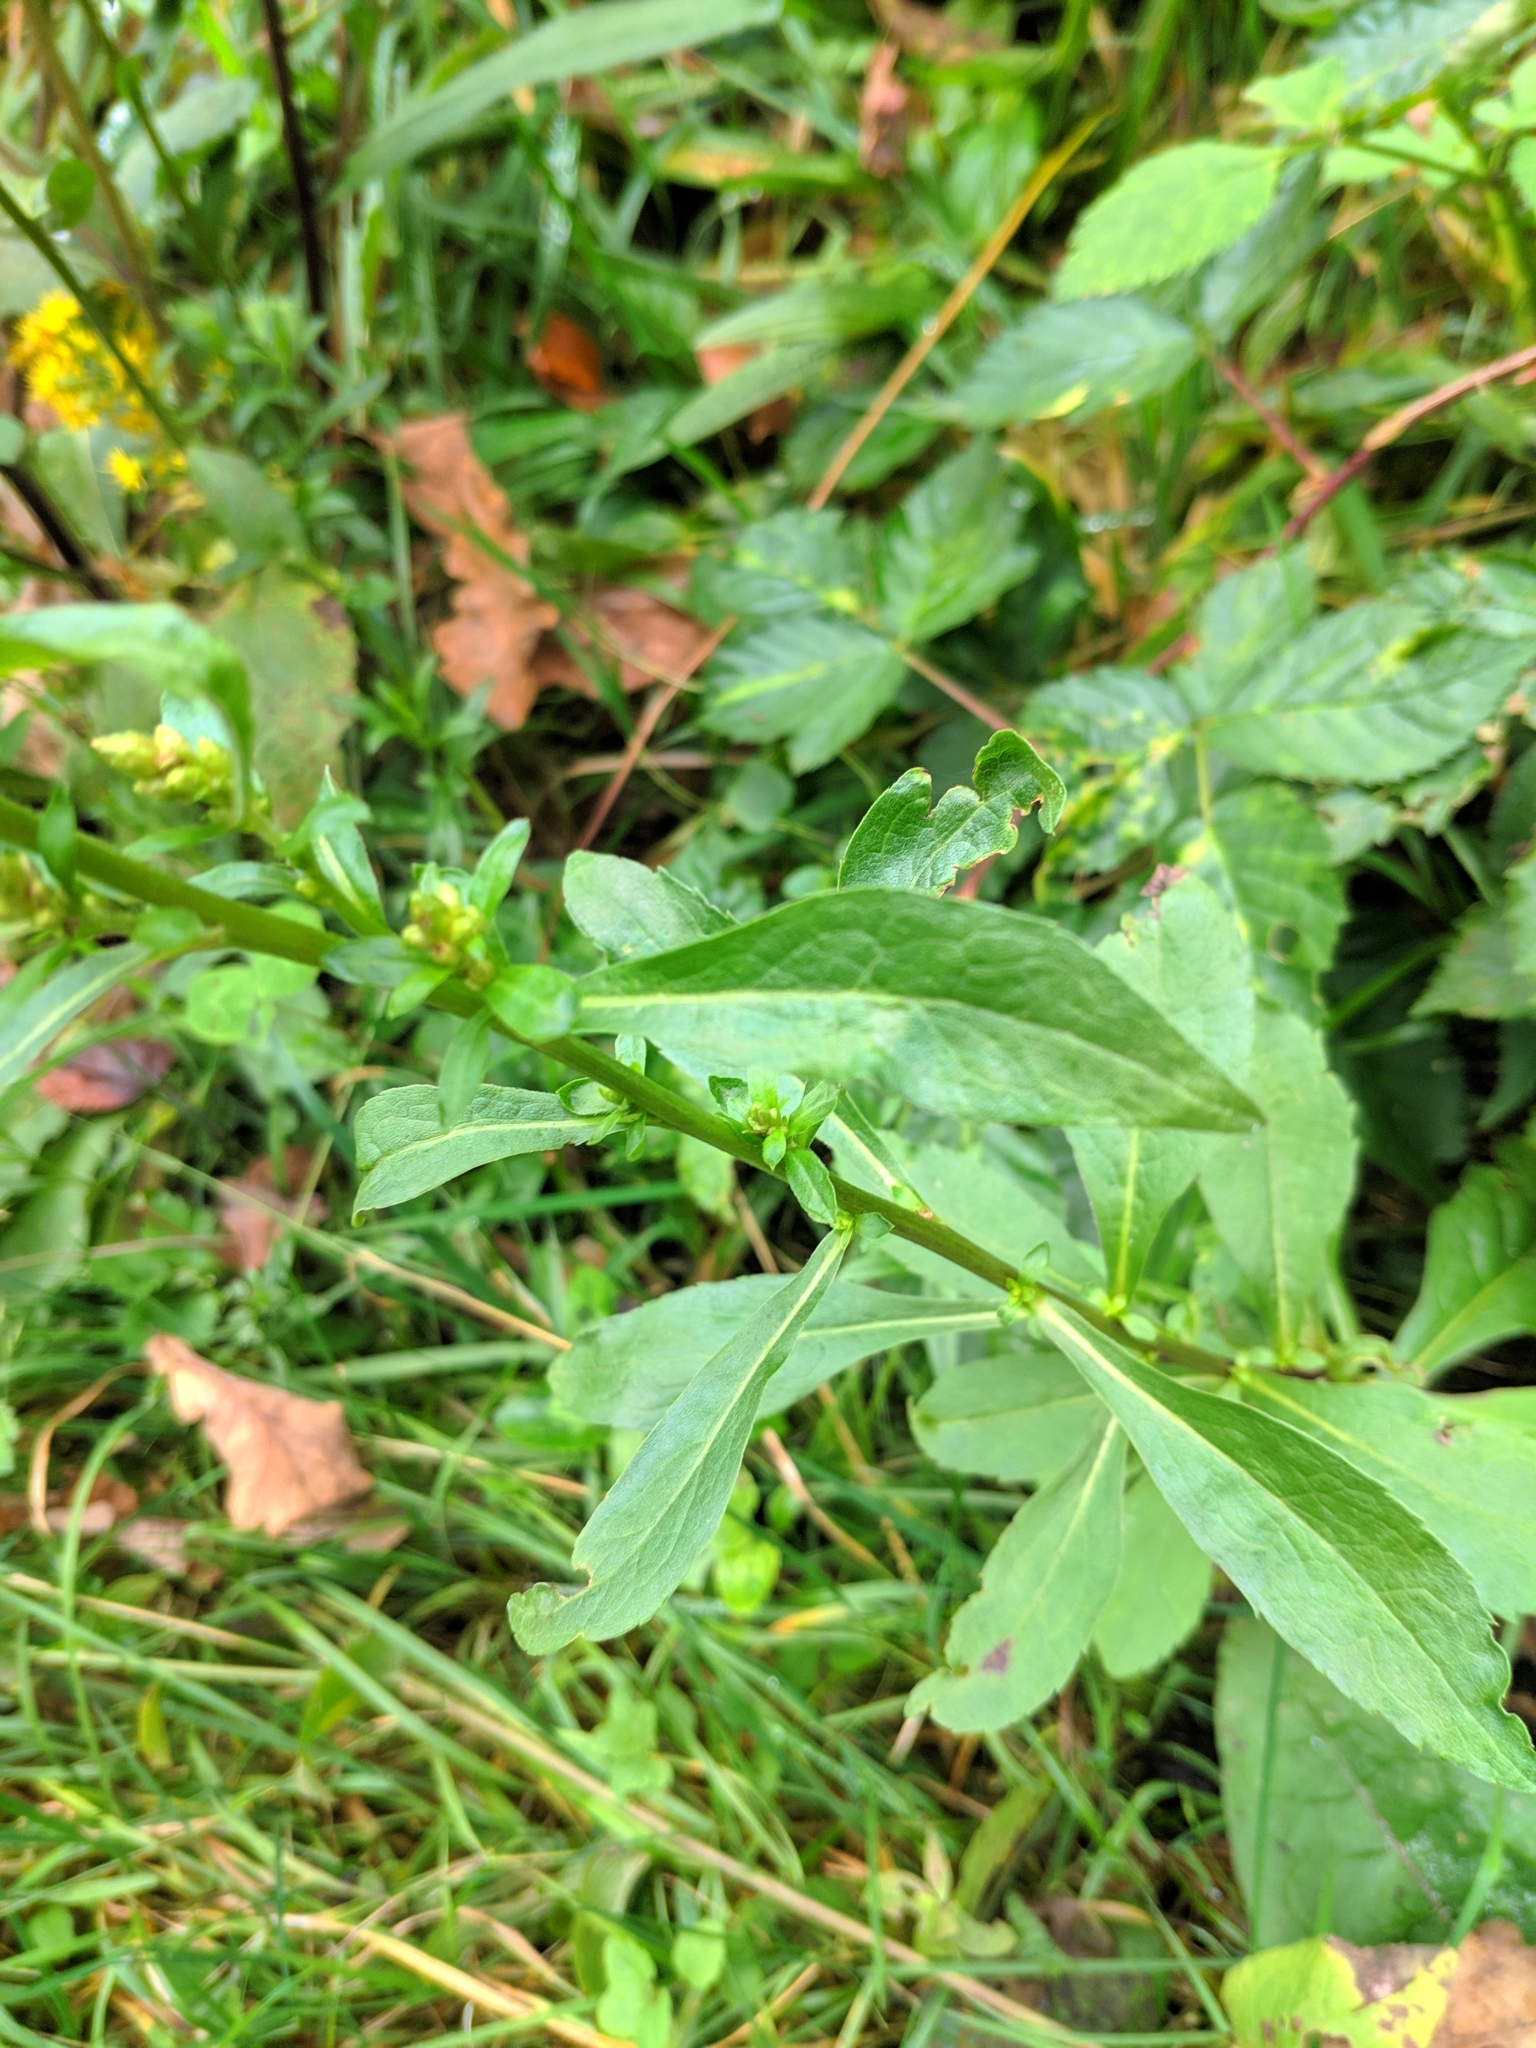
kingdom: Plantae
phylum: Tracheophyta
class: Magnoliopsida
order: Asterales
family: Asteraceae
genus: Solidago
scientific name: Solidago virgaurea
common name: Goldenrod
